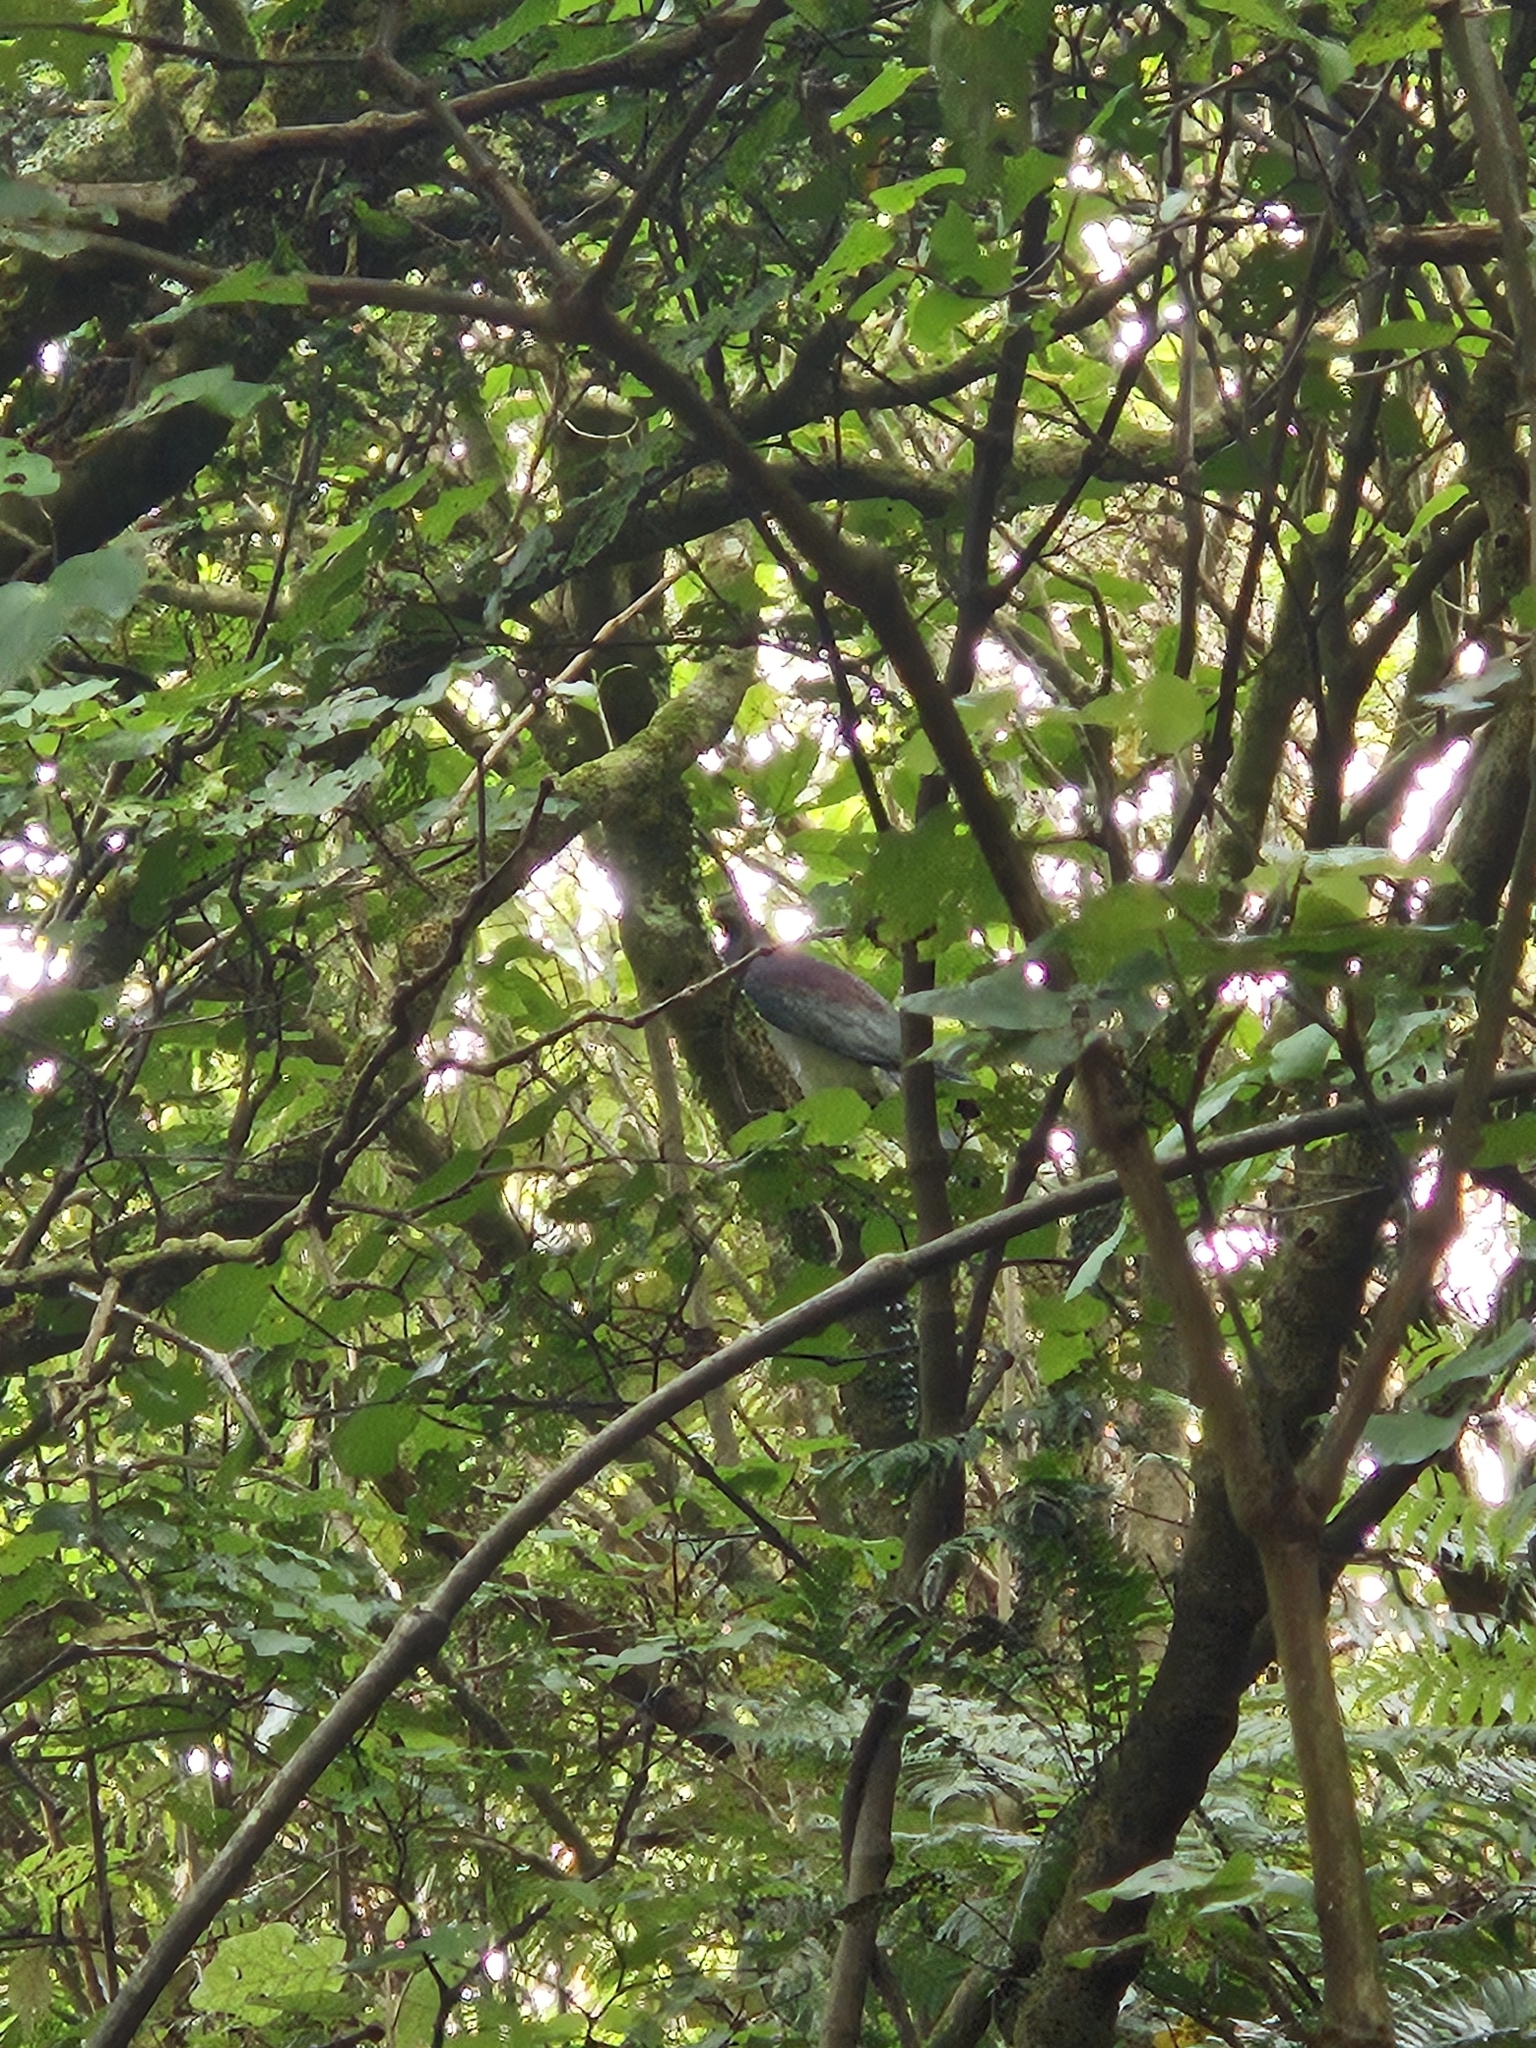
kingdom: Animalia
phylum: Chordata
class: Aves
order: Columbiformes
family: Columbidae
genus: Hemiphaga
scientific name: Hemiphaga novaeseelandiae
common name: New zealand pigeon
